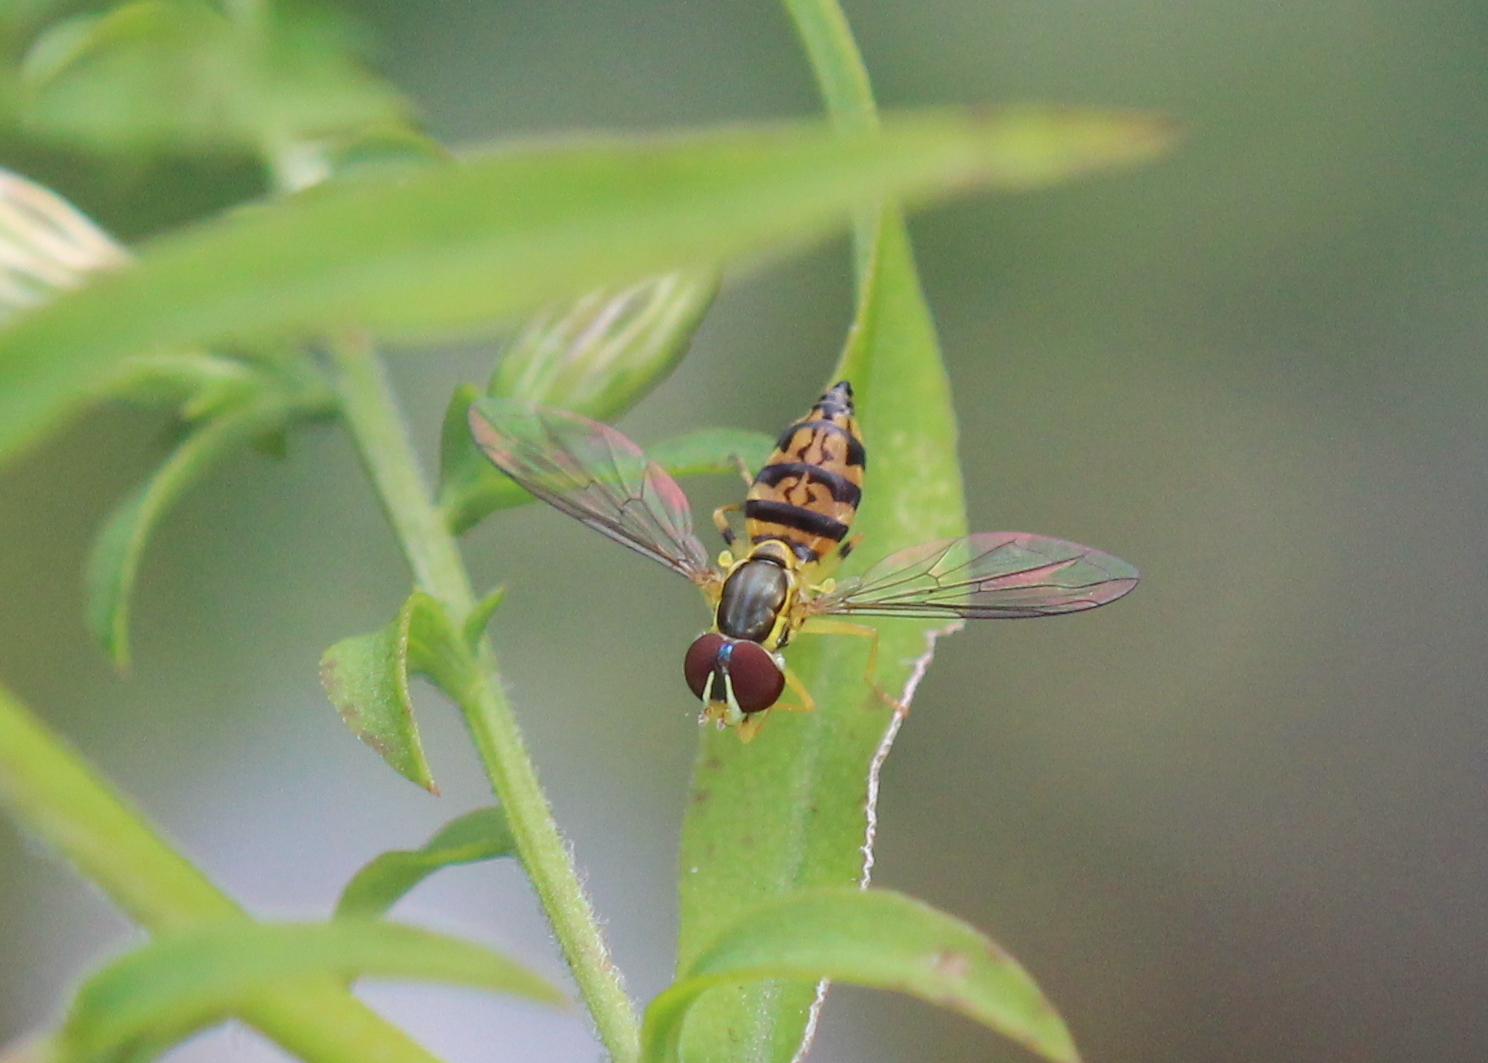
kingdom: Animalia
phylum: Arthropoda
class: Insecta
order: Diptera
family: Syrphidae
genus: Toxomerus
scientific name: Toxomerus geminatus
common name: Eastern calligrapher
